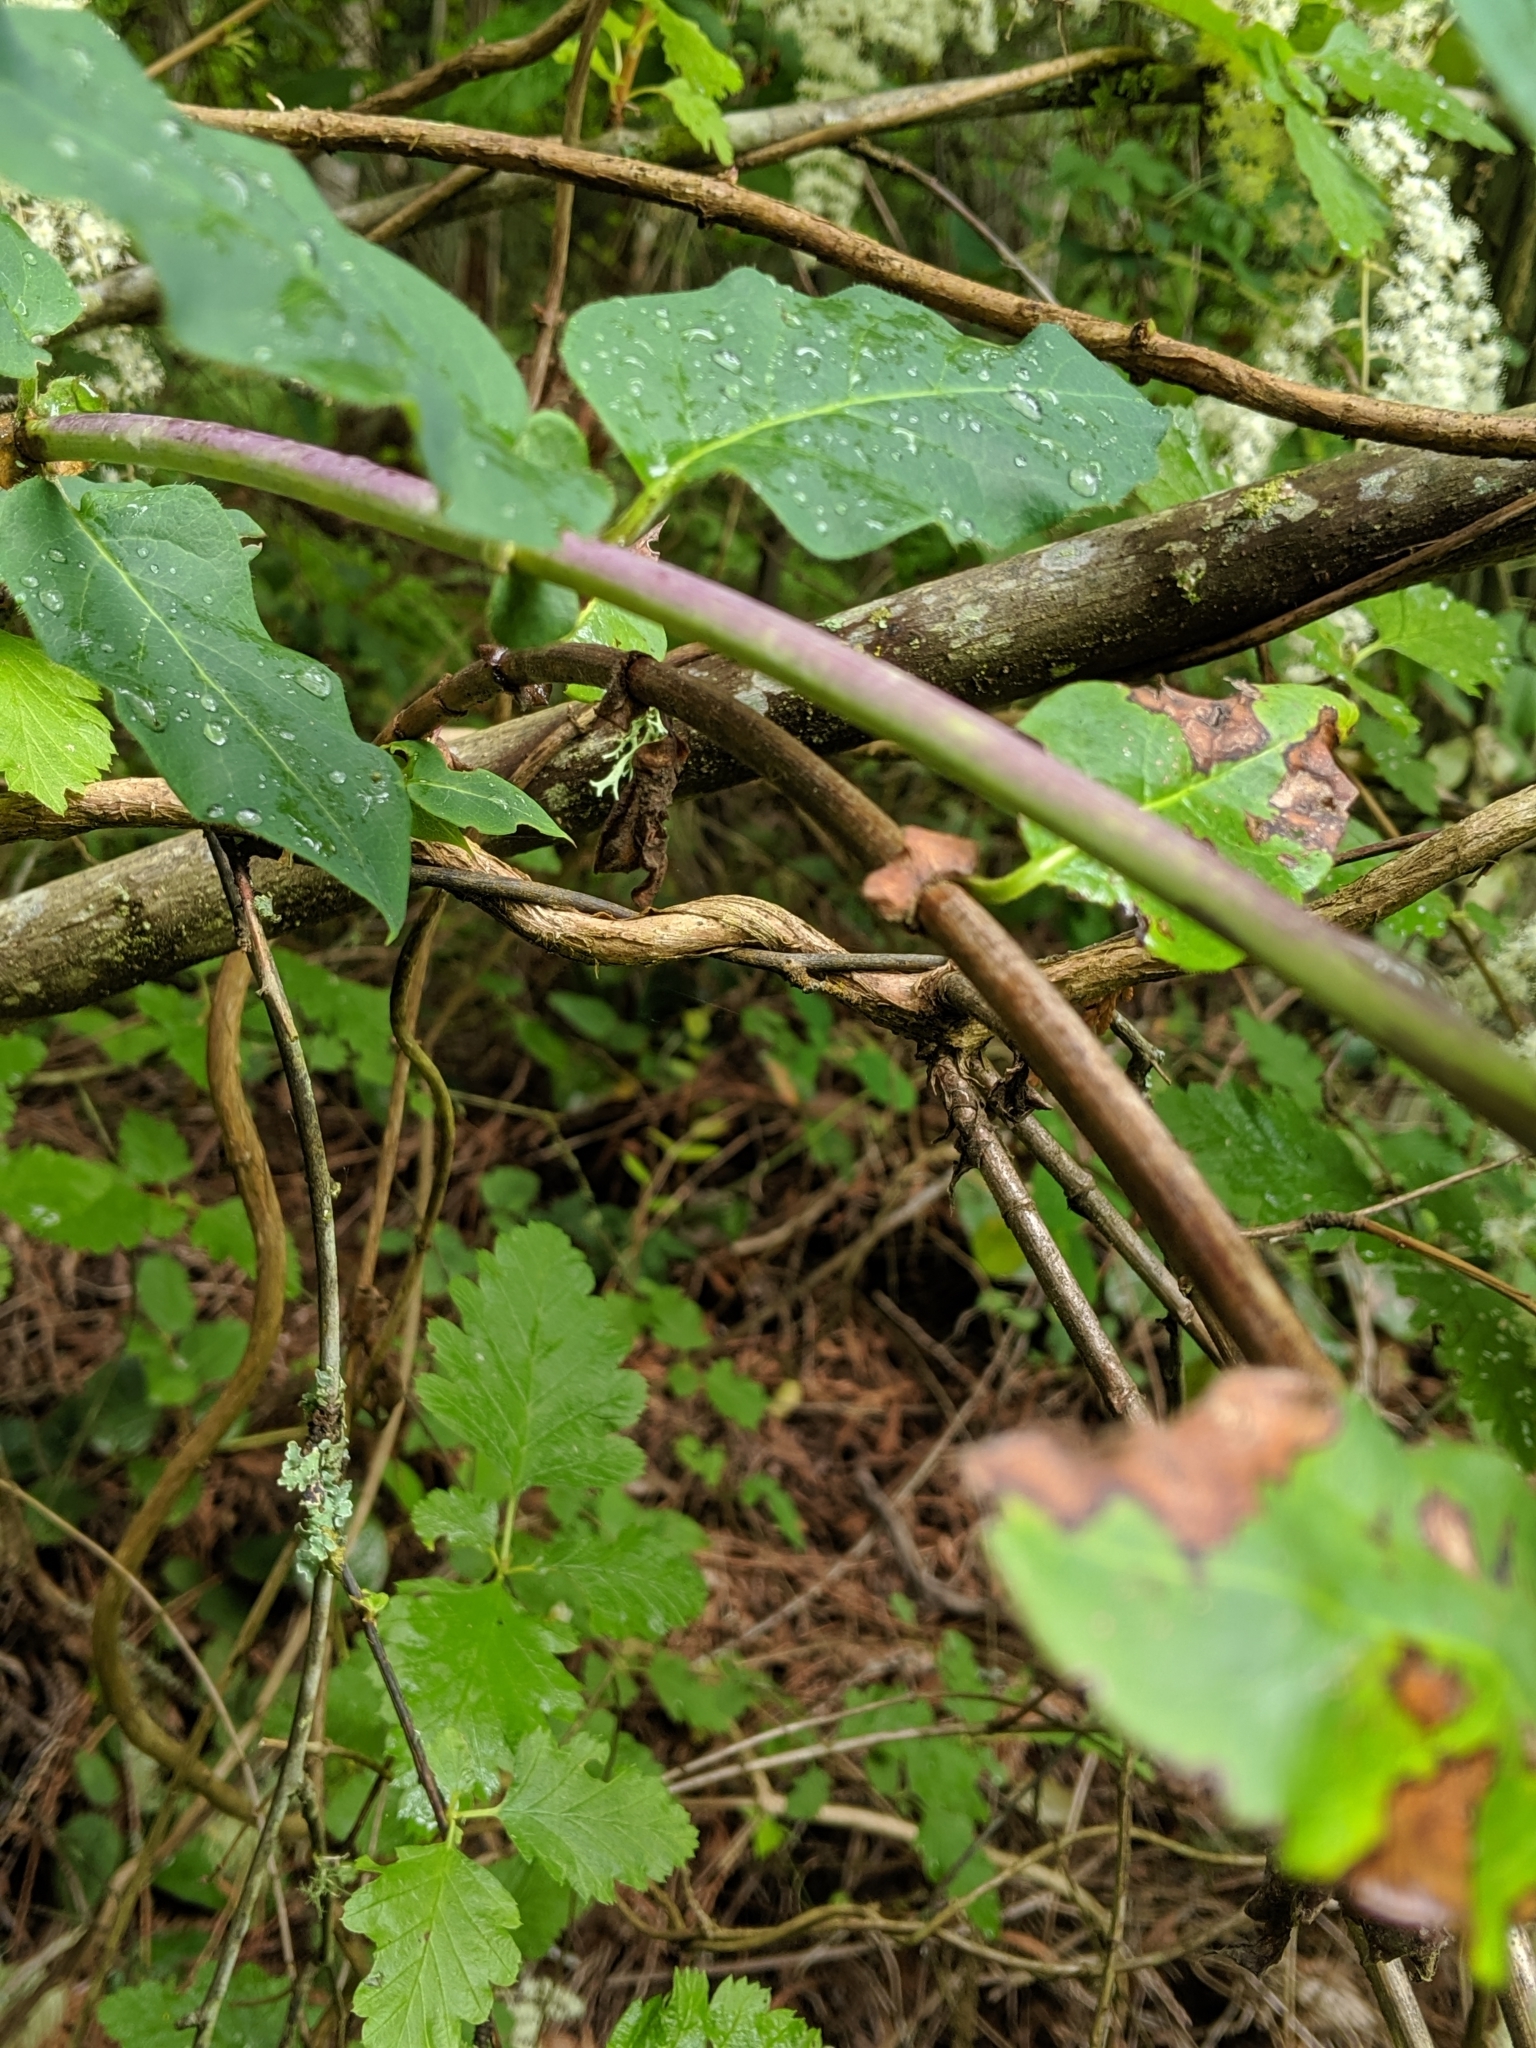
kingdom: Plantae
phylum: Tracheophyta
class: Magnoliopsida
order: Dipsacales
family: Caprifoliaceae
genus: Lonicera
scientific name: Lonicera hispidula
